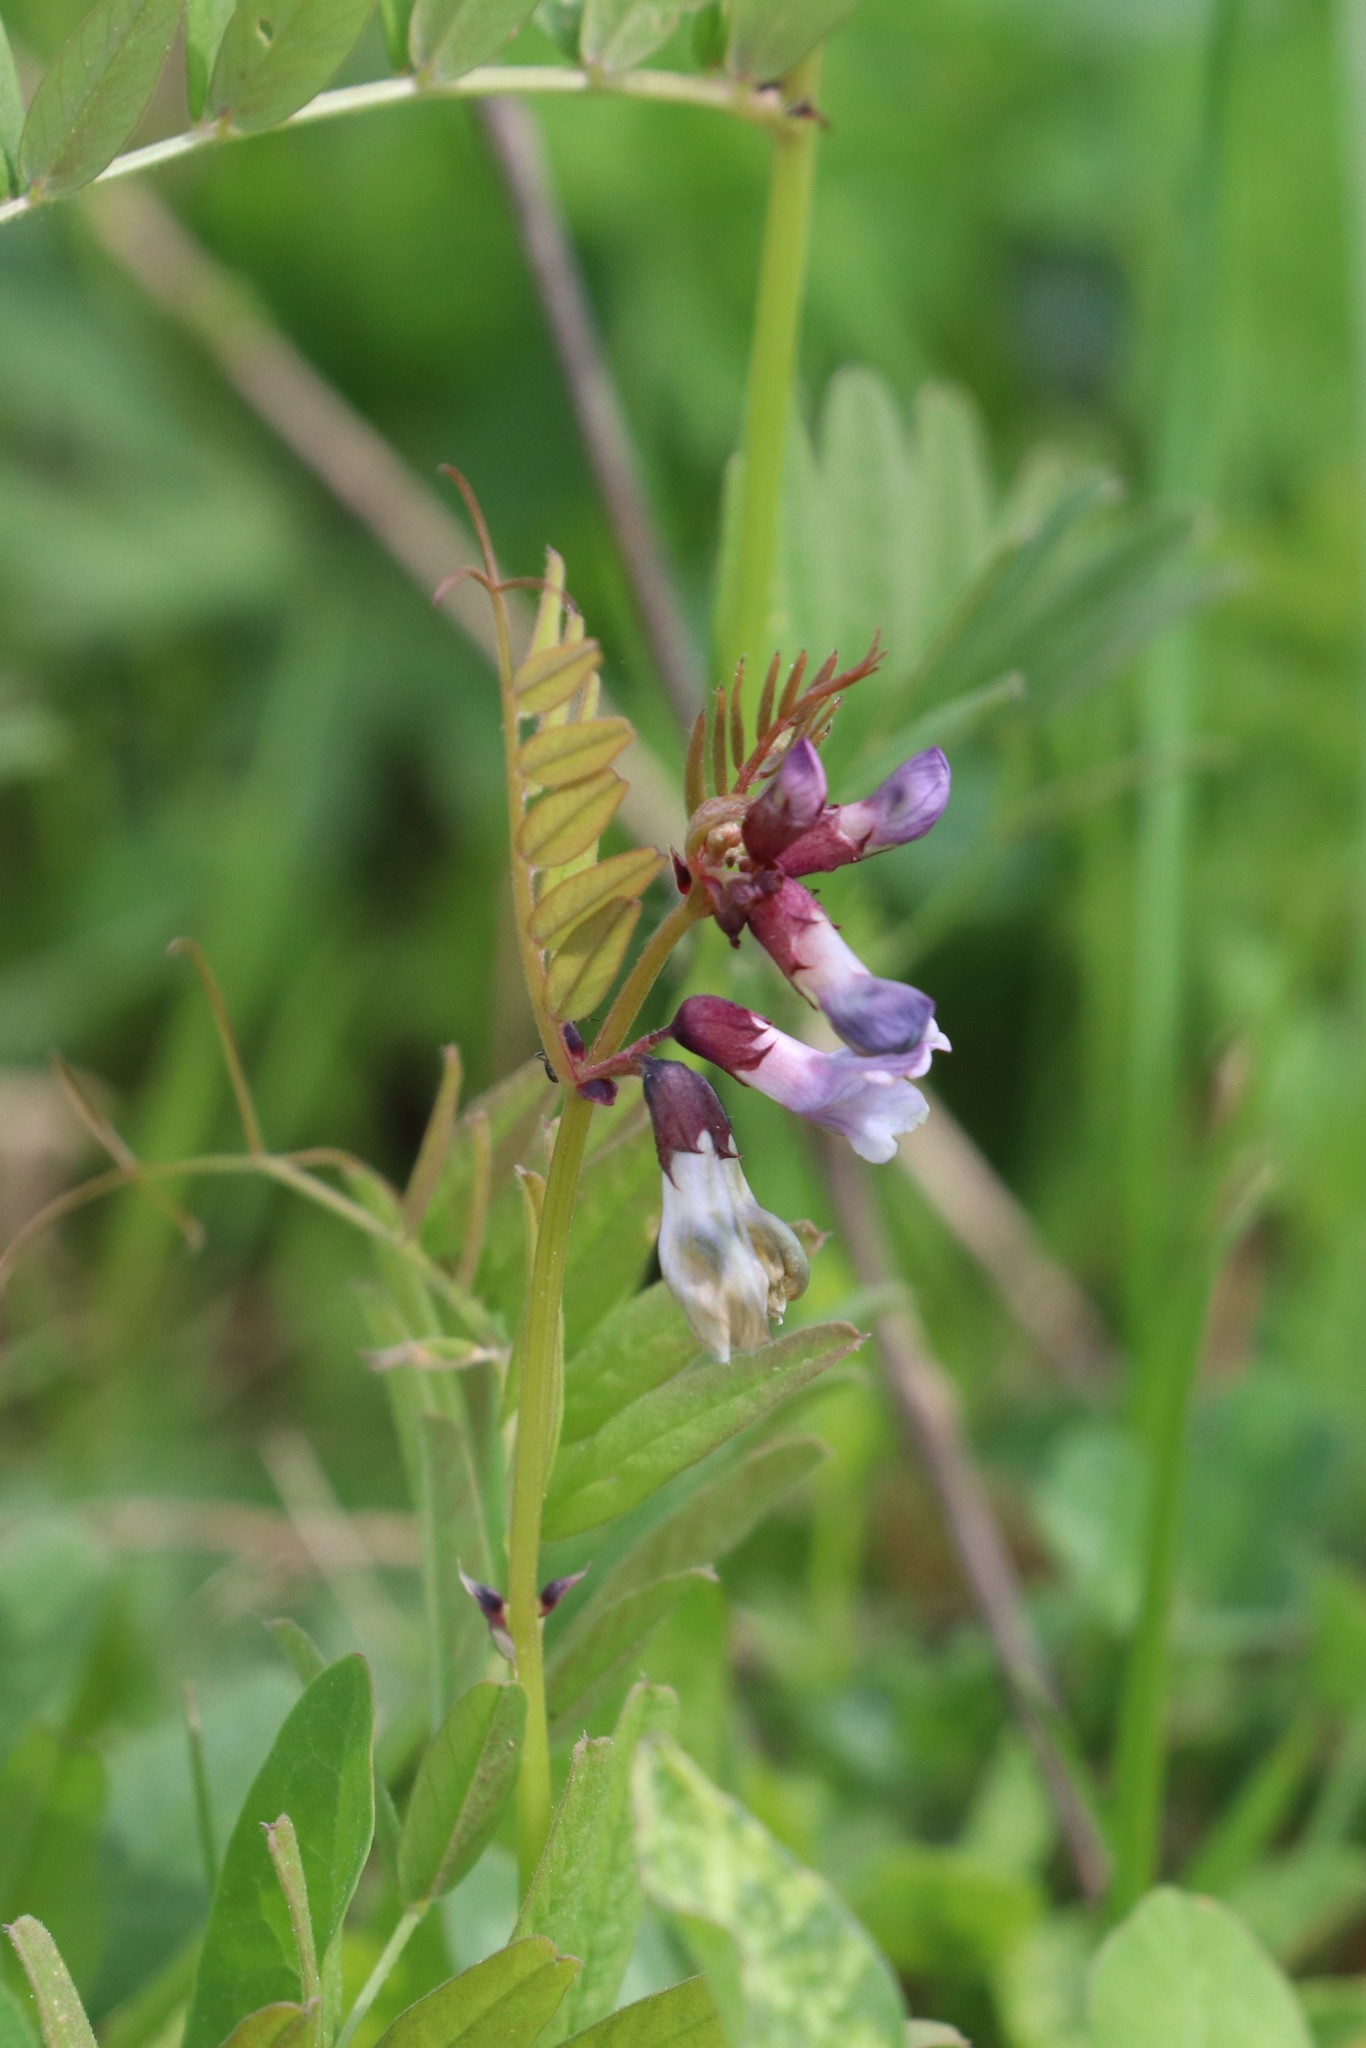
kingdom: Plantae
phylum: Tracheophyta
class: Magnoliopsida
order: Fabales
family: Fabaceae
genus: Vicia
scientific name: Vicia sepium
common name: Bush vetch
